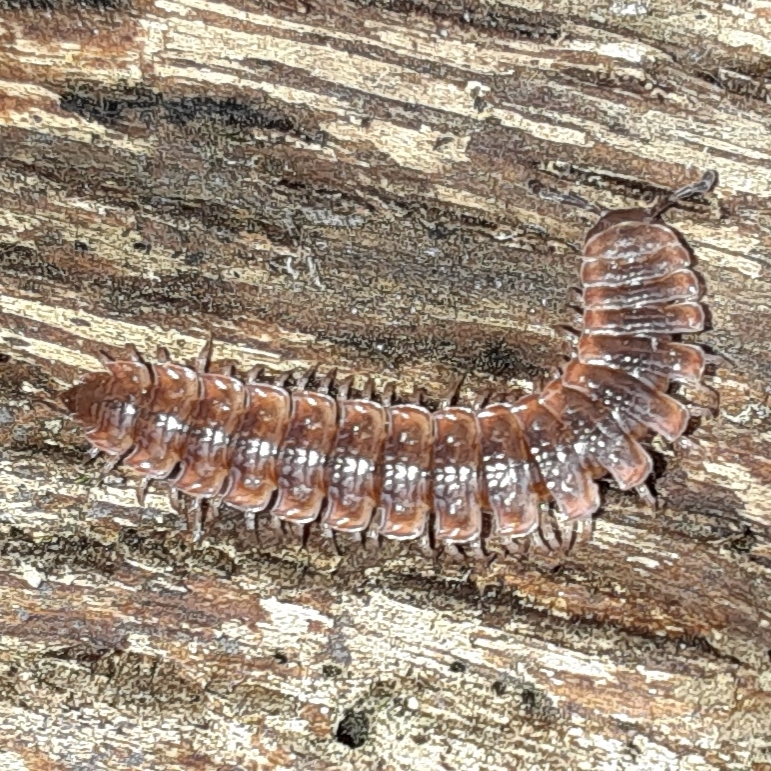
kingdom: Animalia
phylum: Arthropoda
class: Diplopoda
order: Polydesmida
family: Polydesmidae
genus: Pseudopolydesmus
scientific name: Pseudopolydesmus serratus
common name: Common pink flat-back millipede
